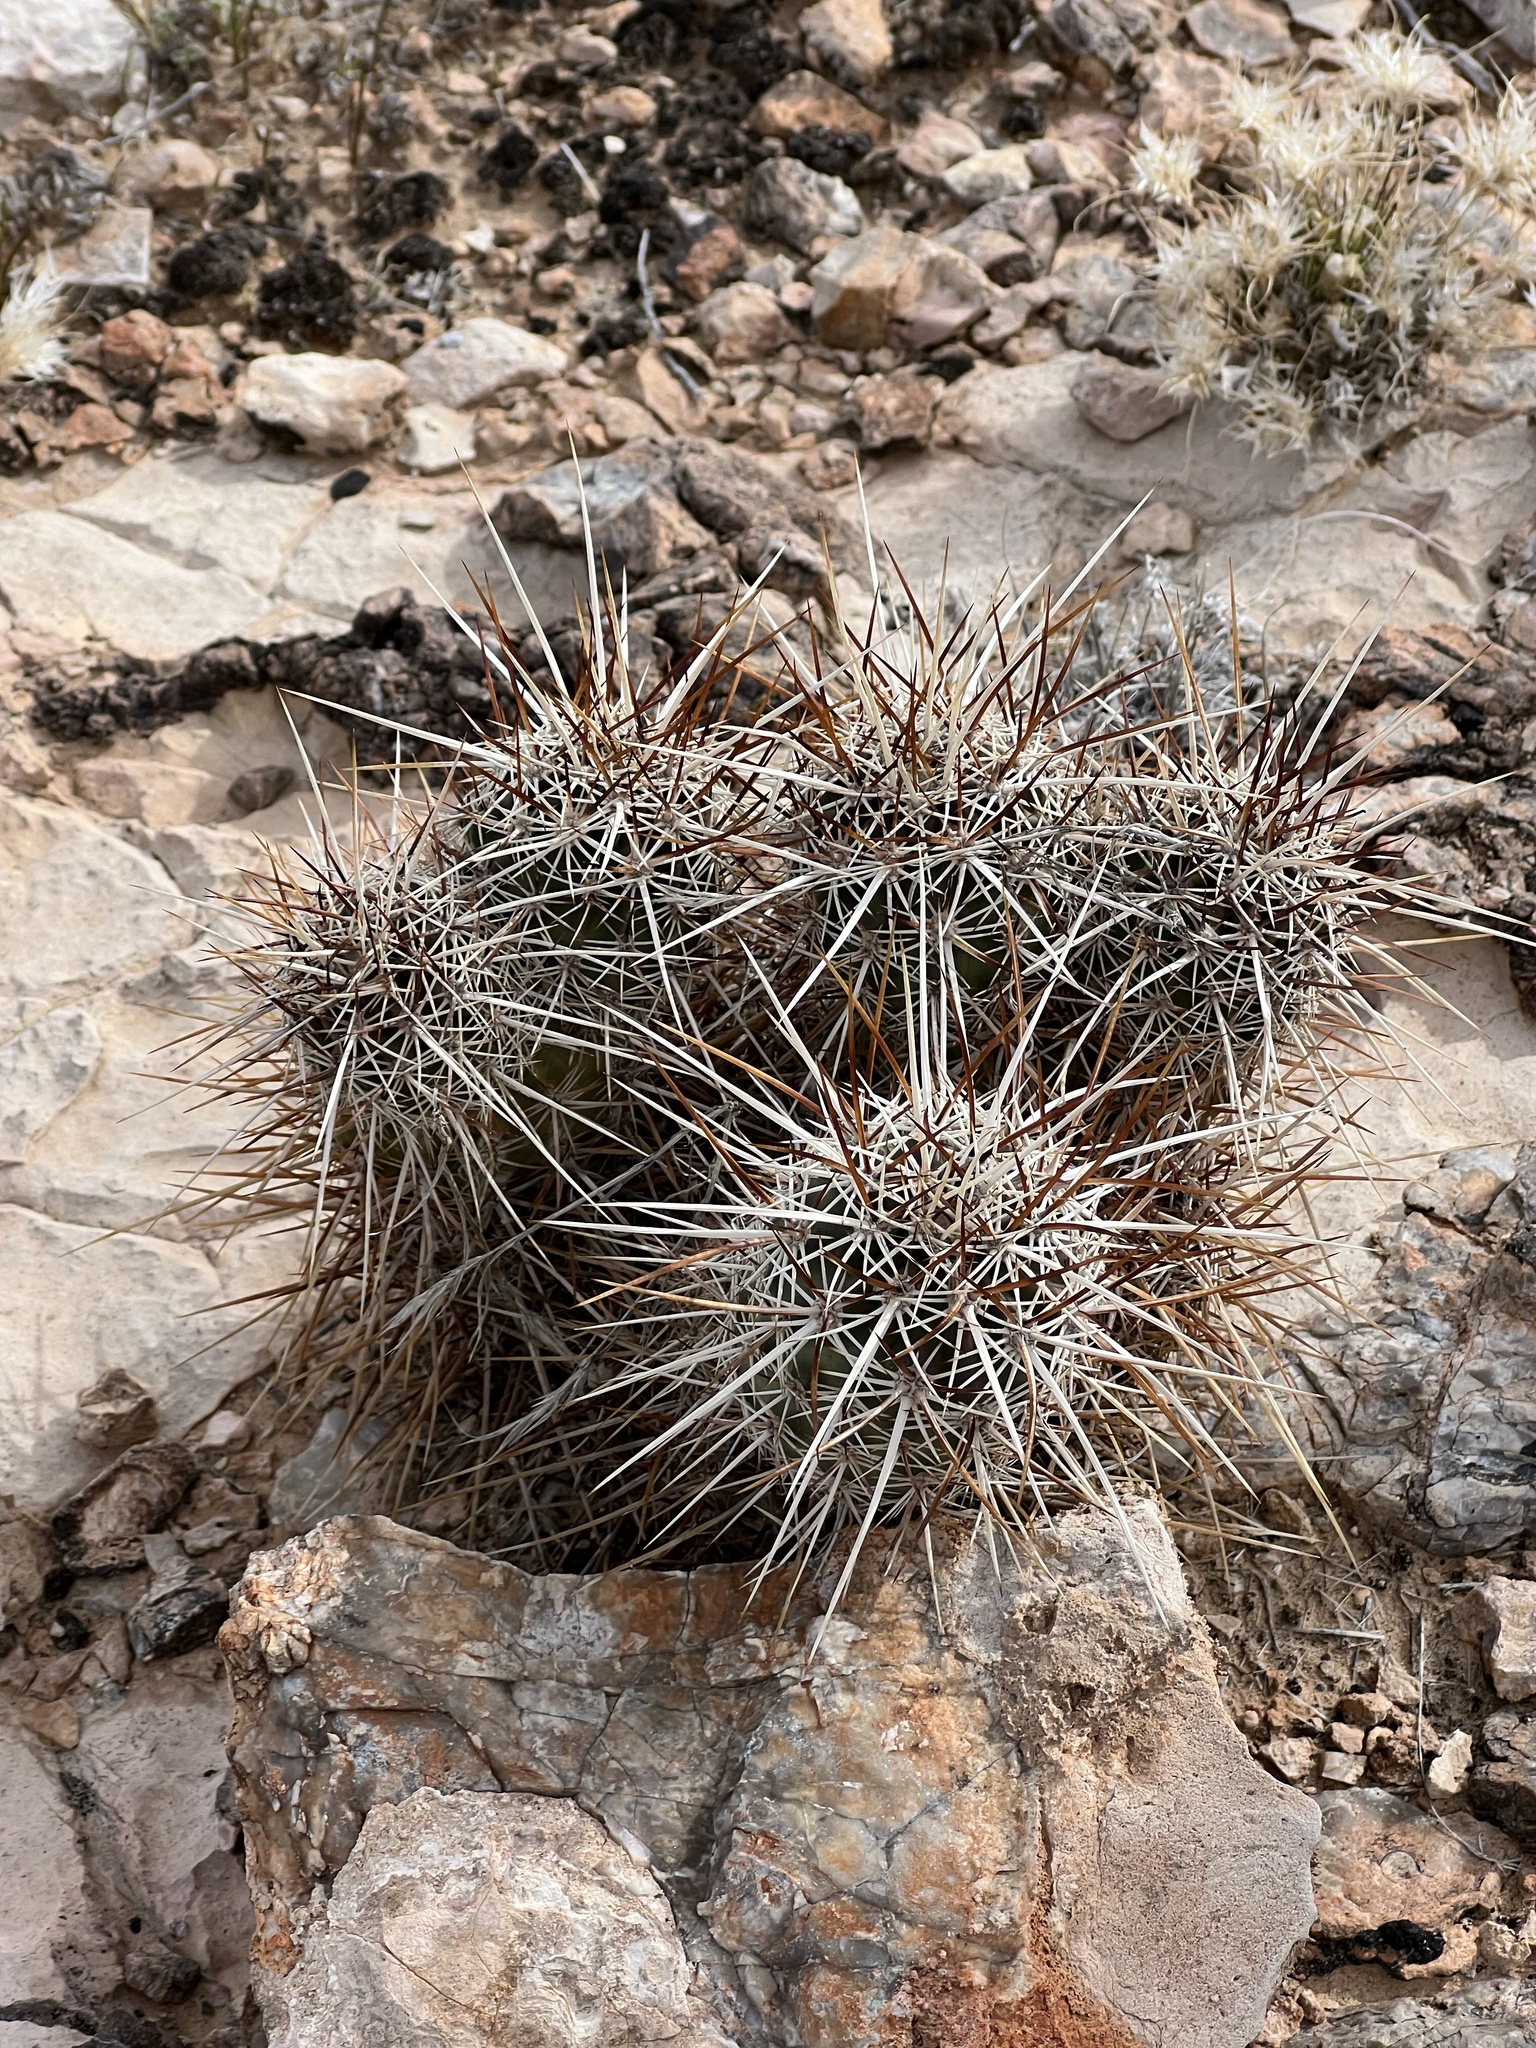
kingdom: Plantae
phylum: Tracheophyta
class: Magnoliopsida
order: Caryophyllales
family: Cactaceae
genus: Echinocereus
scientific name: Echinocereus engelmannii
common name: Engelmann's hedgehog cactus
